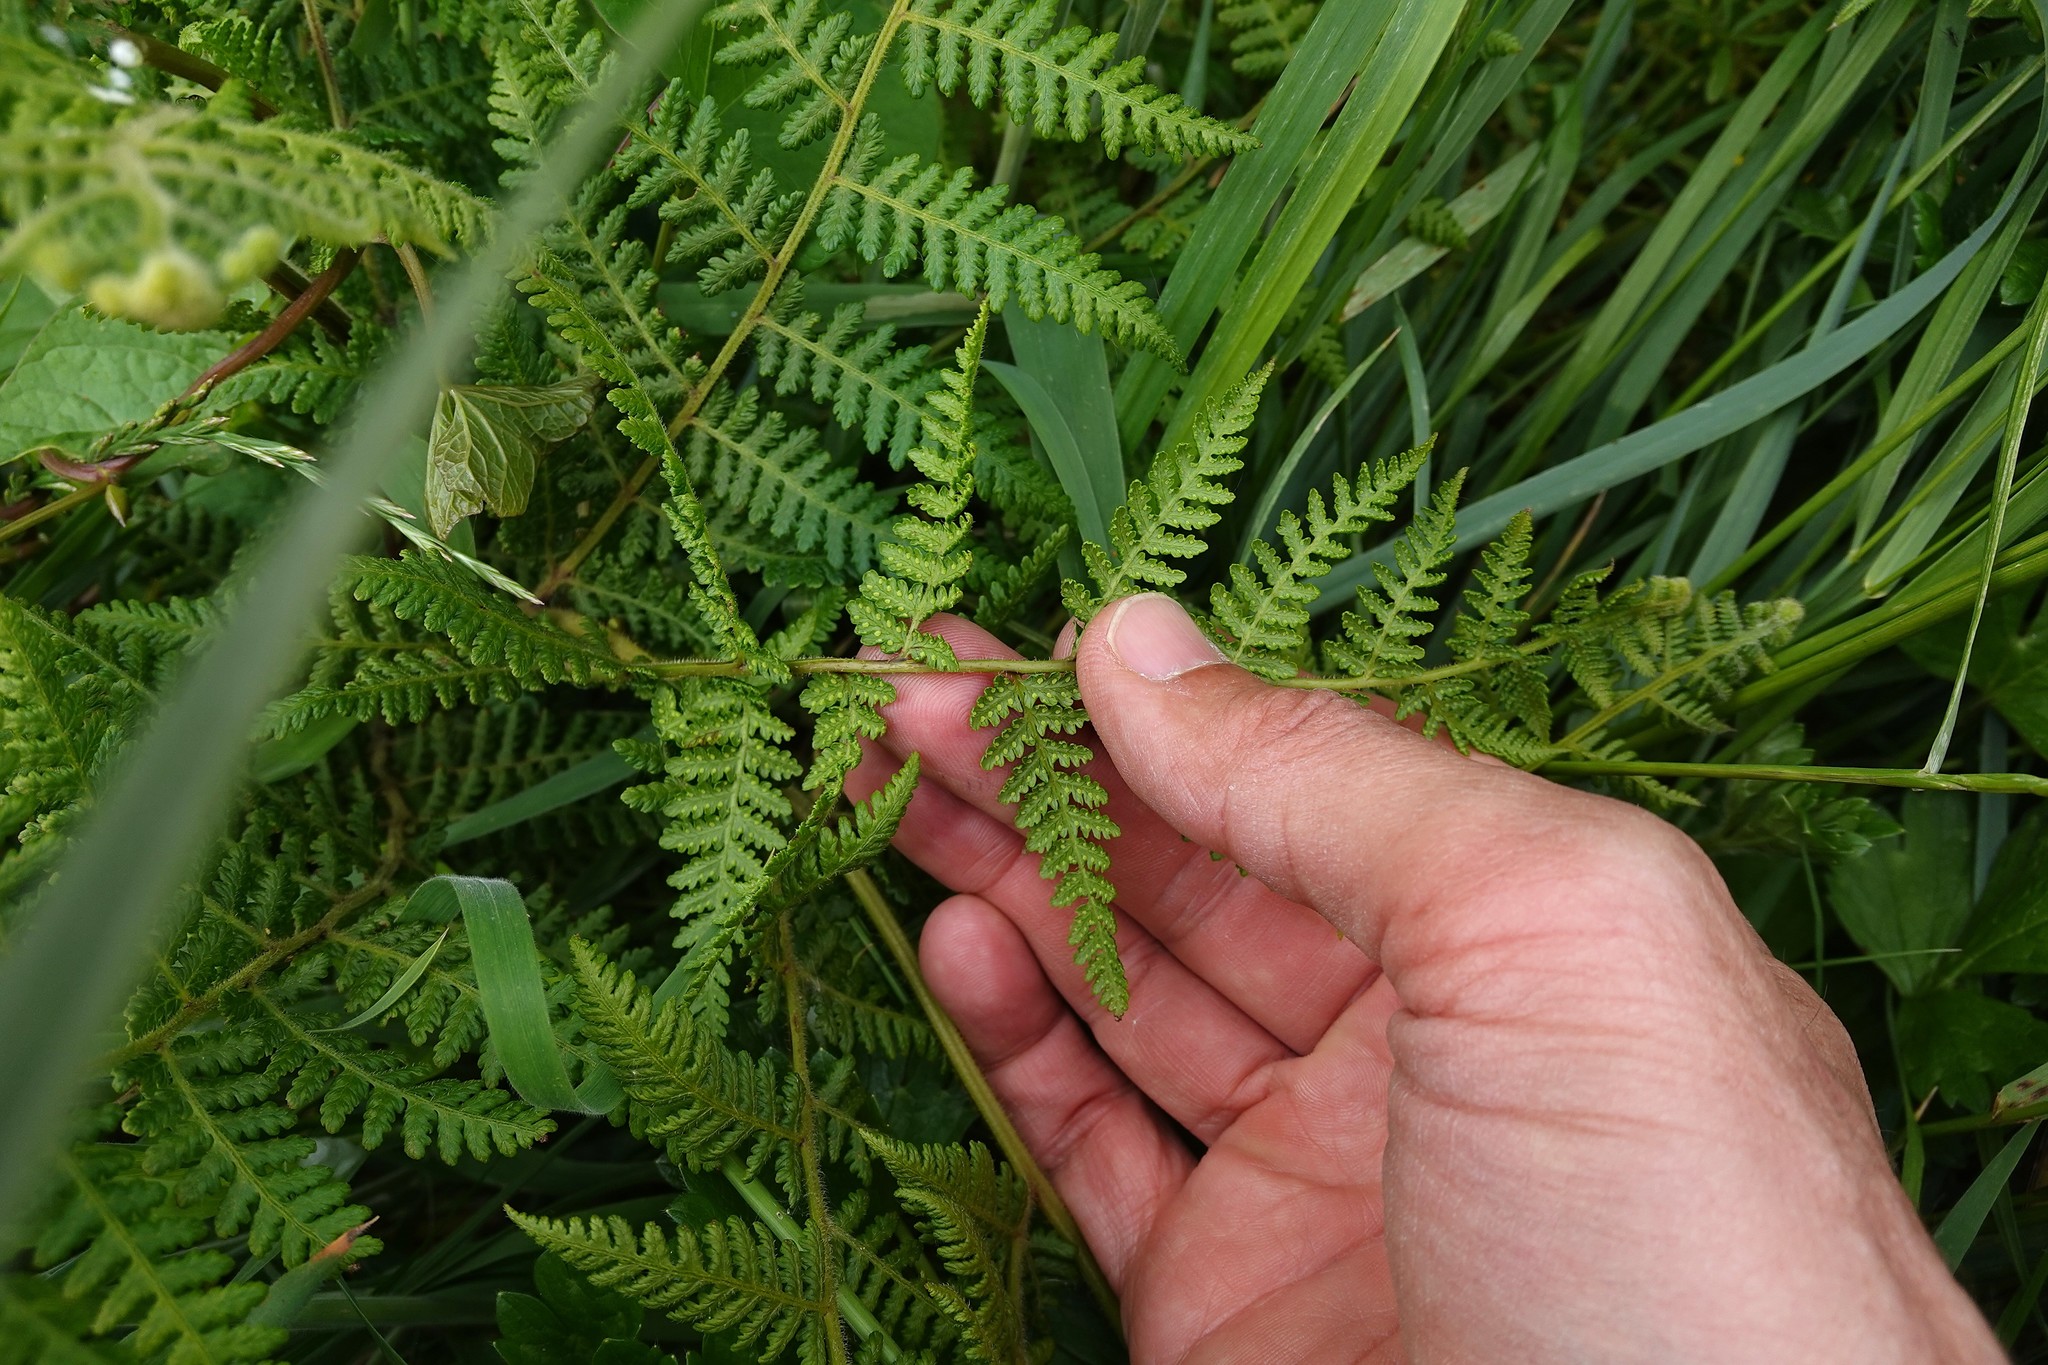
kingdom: Plantae
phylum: Tracheophyta
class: Polypodiopsida
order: Polypodiales
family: Dennstaedtiaceae
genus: Hypolepis
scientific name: Hypolepis ambigua
